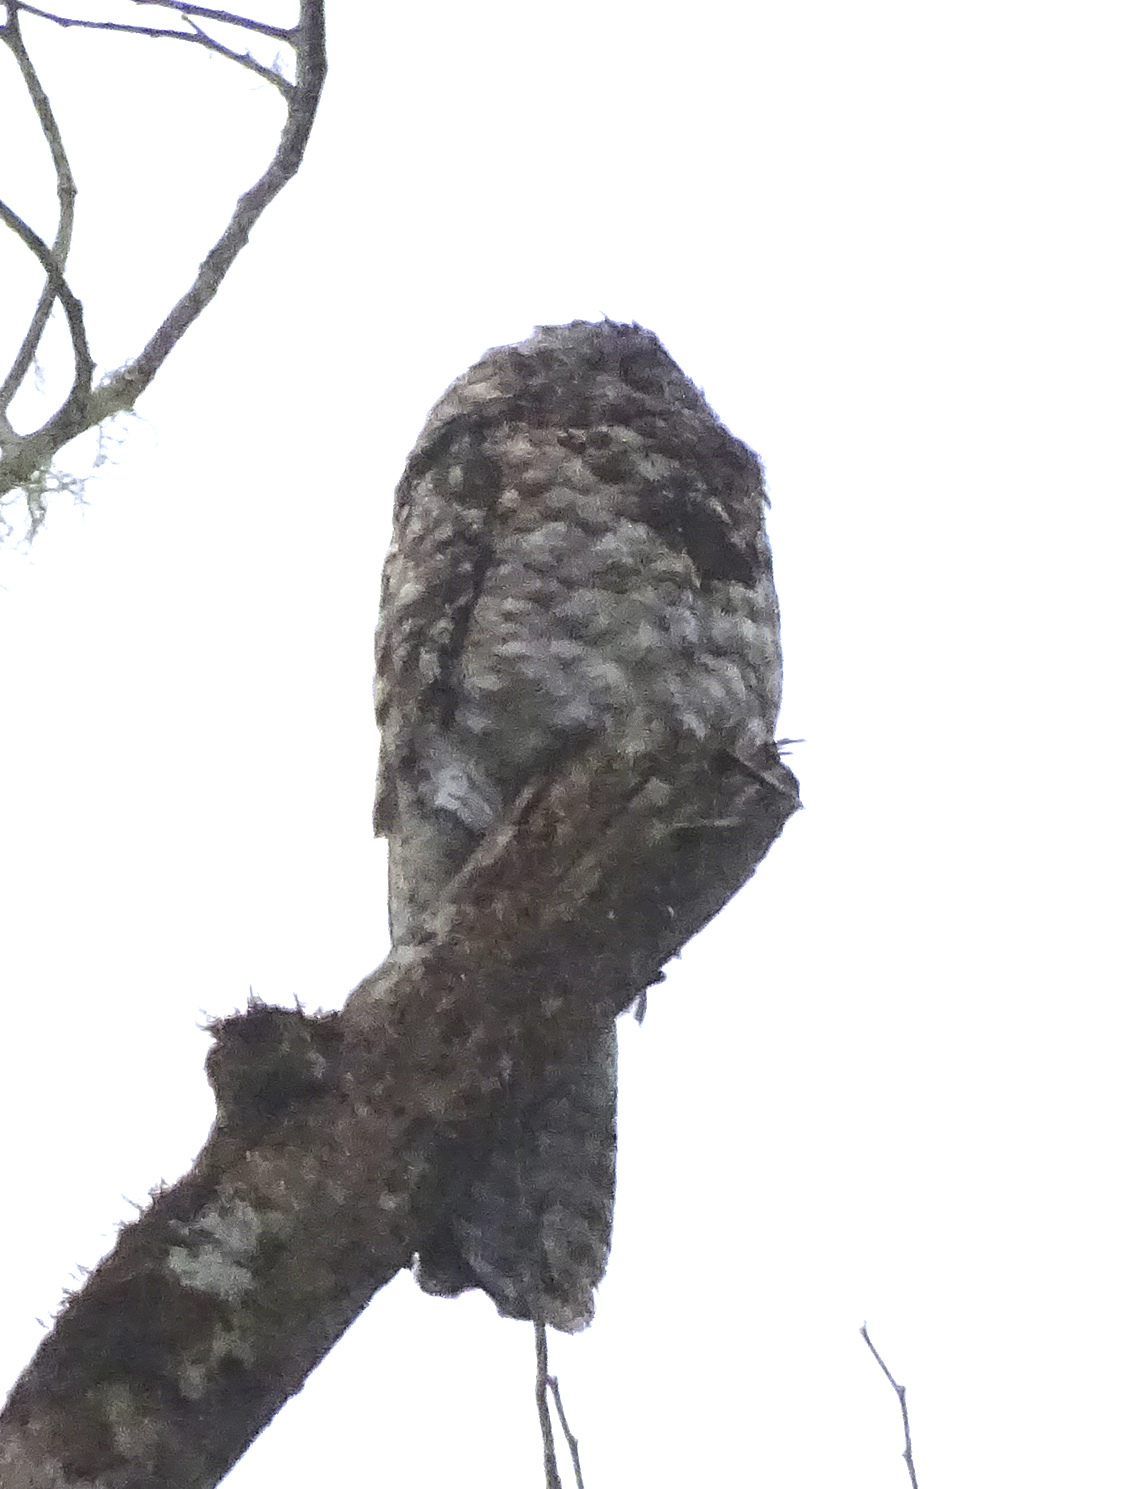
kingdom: Animalia
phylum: Chordata
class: Aves
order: Nyctibiiformes
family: Nyctibiidae
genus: Nyctibius
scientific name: Nyctibius grandis
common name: Great potoo
